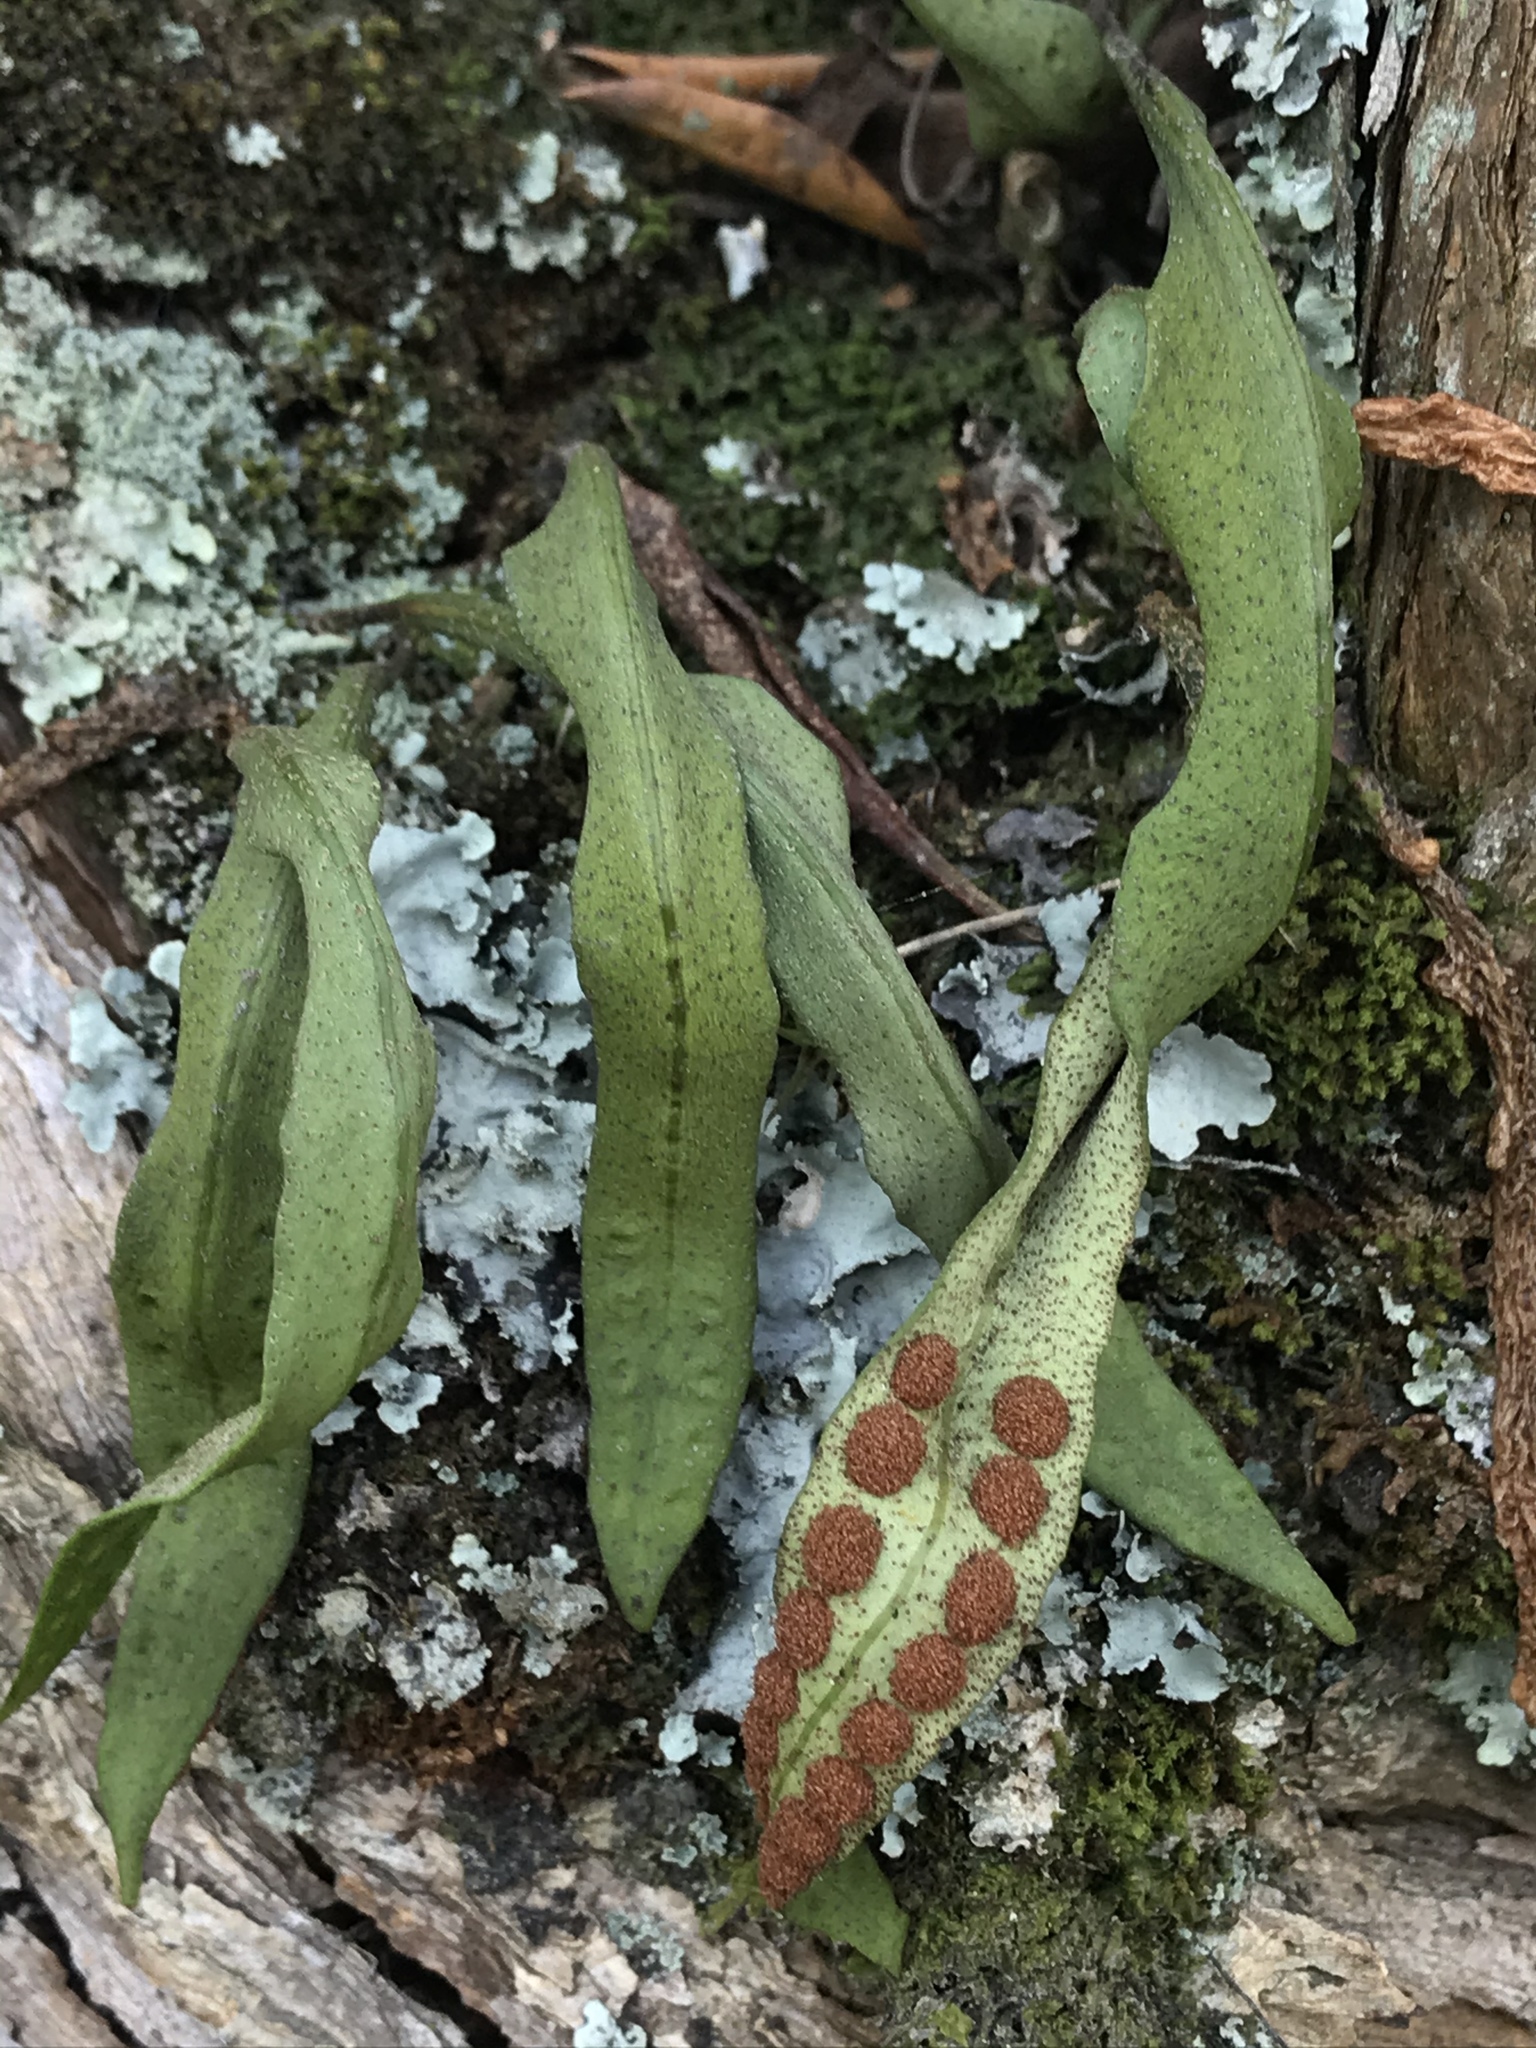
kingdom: Plantae
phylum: Tracheophyta
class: Polypodiopsida
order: Polypodiales
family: Polypodiaceae
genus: Pleopeltis
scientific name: Pleopeltis macrocarpa
